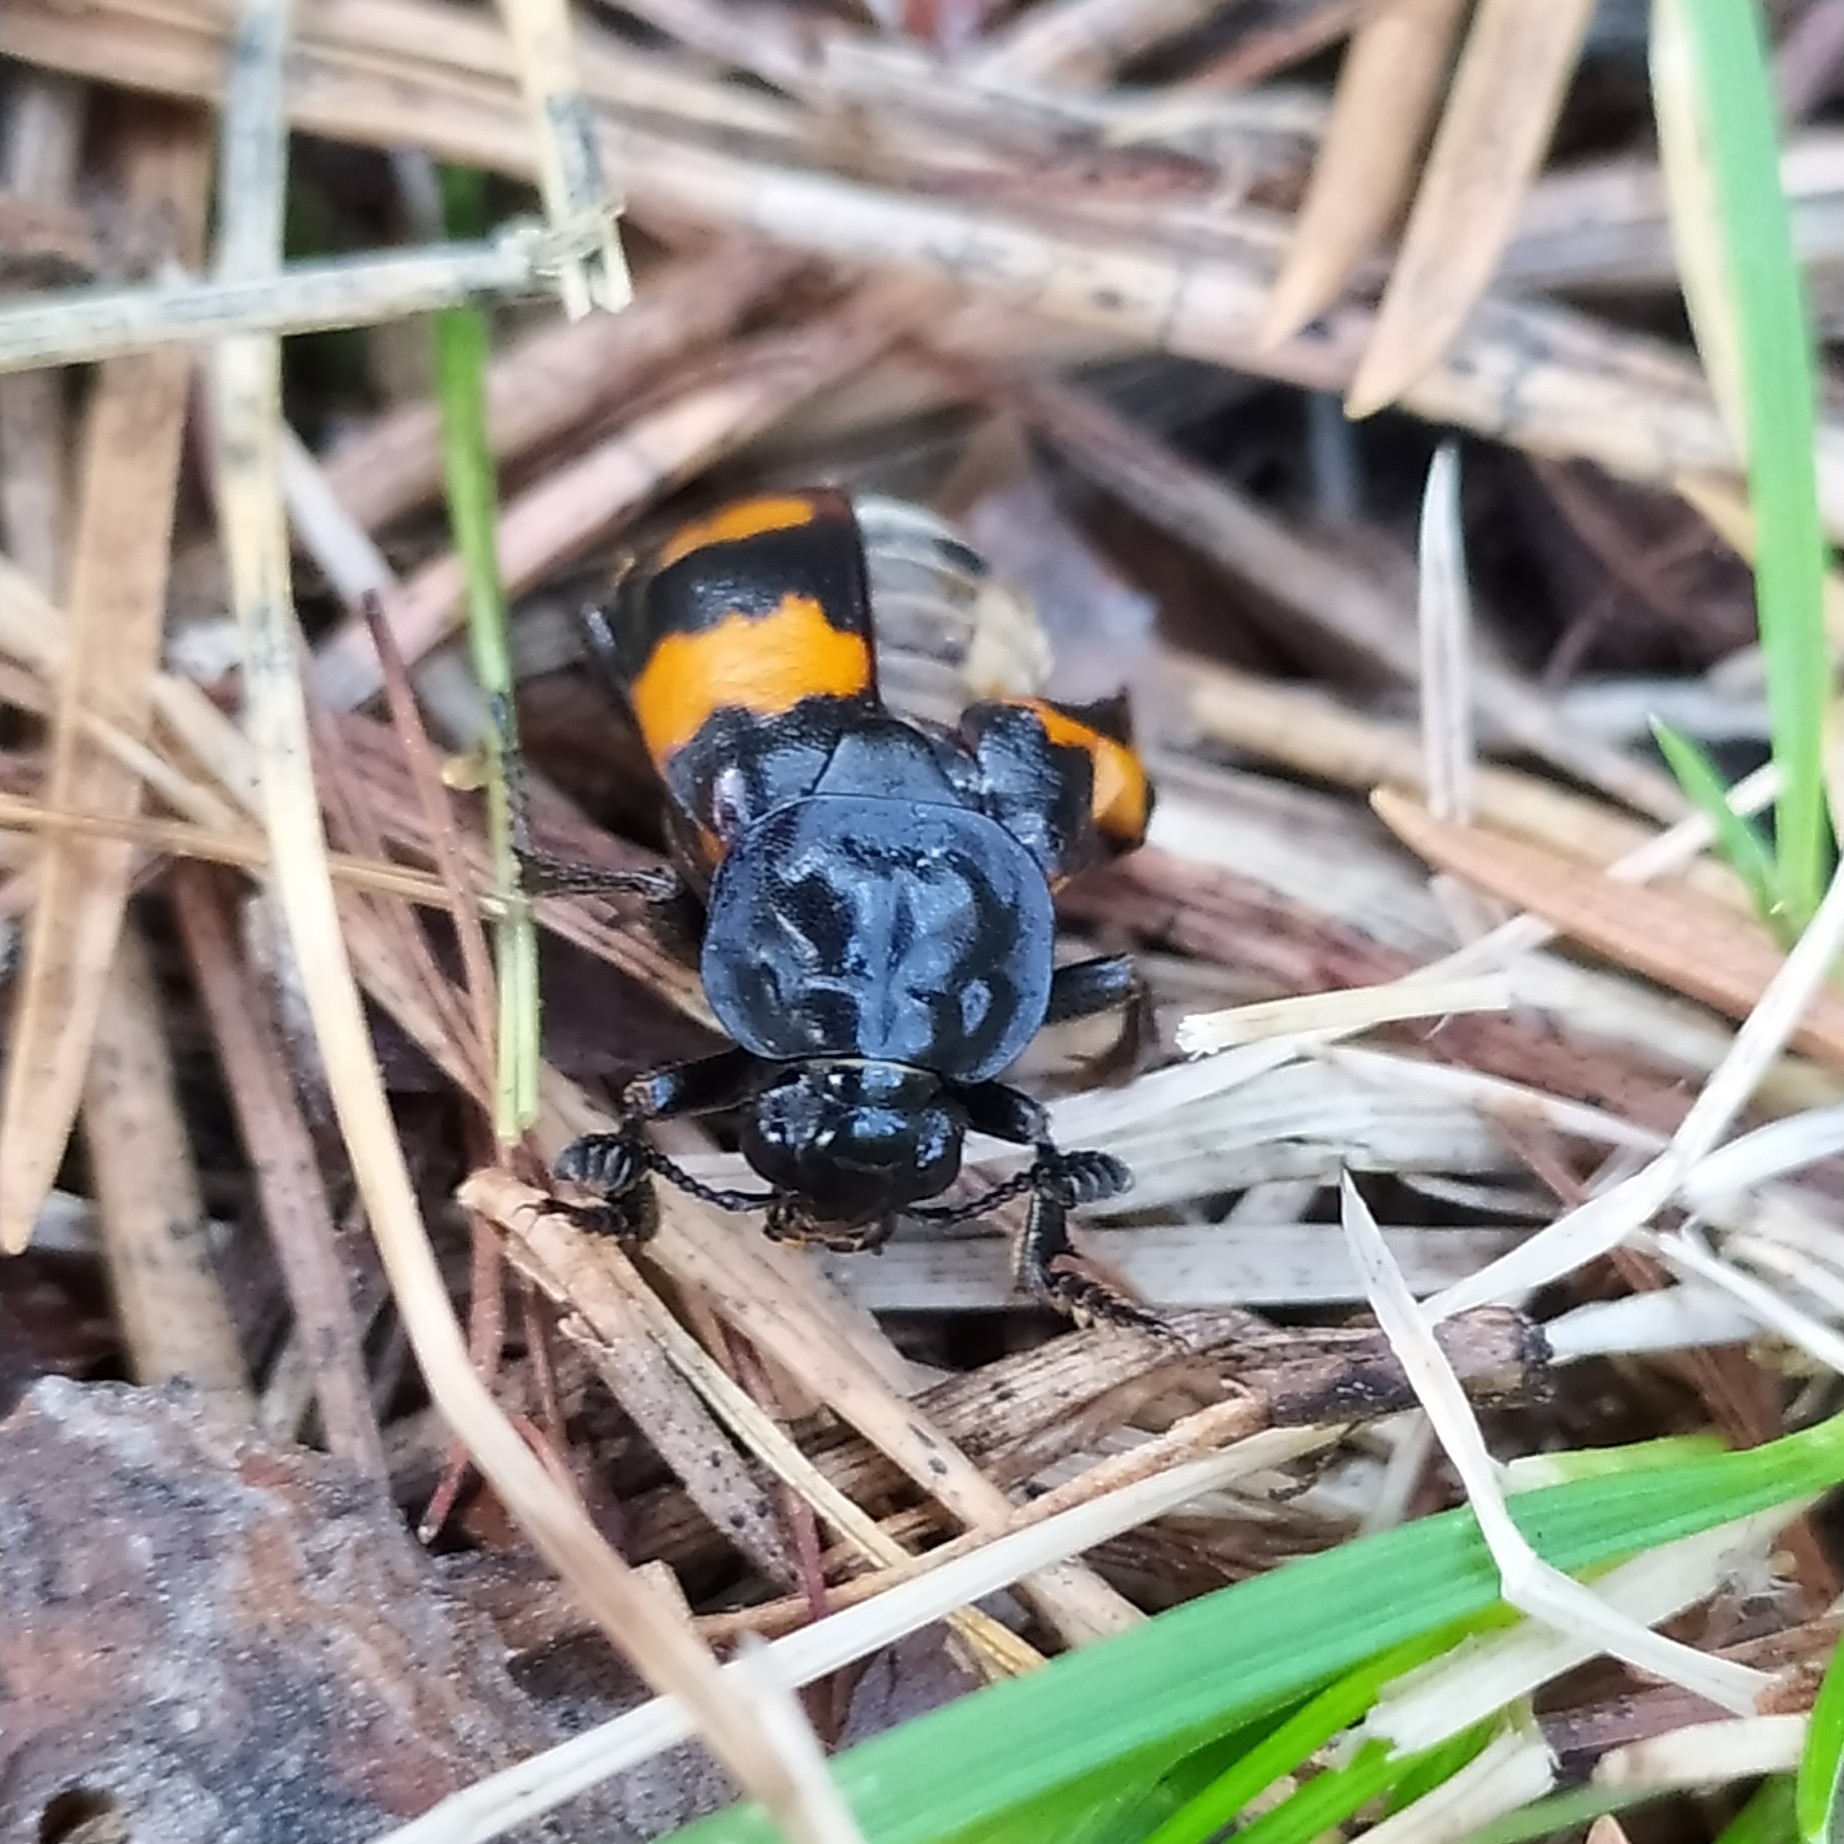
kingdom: Animalia
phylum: Arthropoda
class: Insecta
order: Coleoptera
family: Staphylinidae
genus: Nicrophorus
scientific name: Nicrophorus vespilloides
